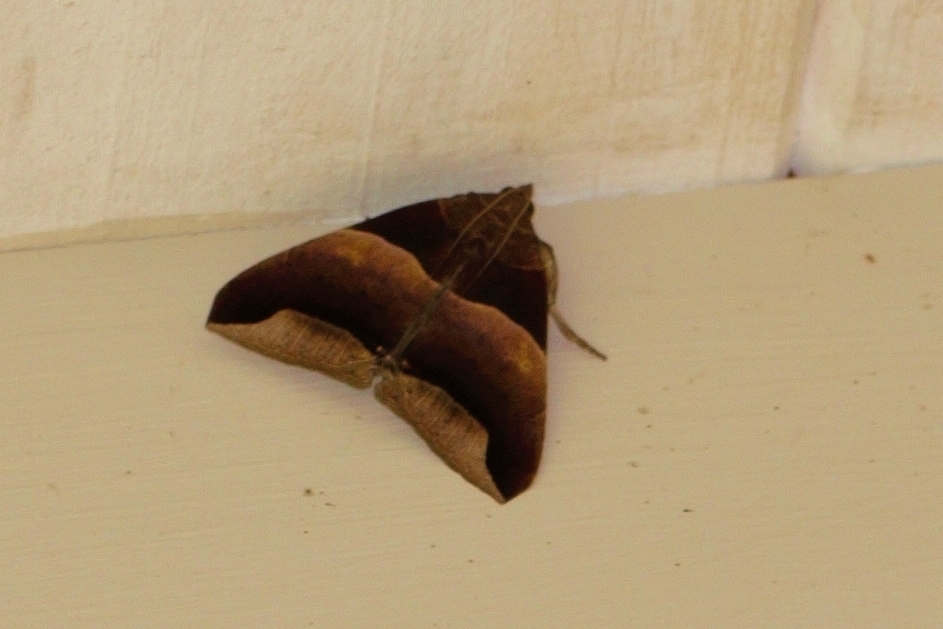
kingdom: Animalia
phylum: Arthropoda
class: Insecta
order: Lepidoptera
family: Erebidae
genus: Achaea
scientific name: Achaea echo
